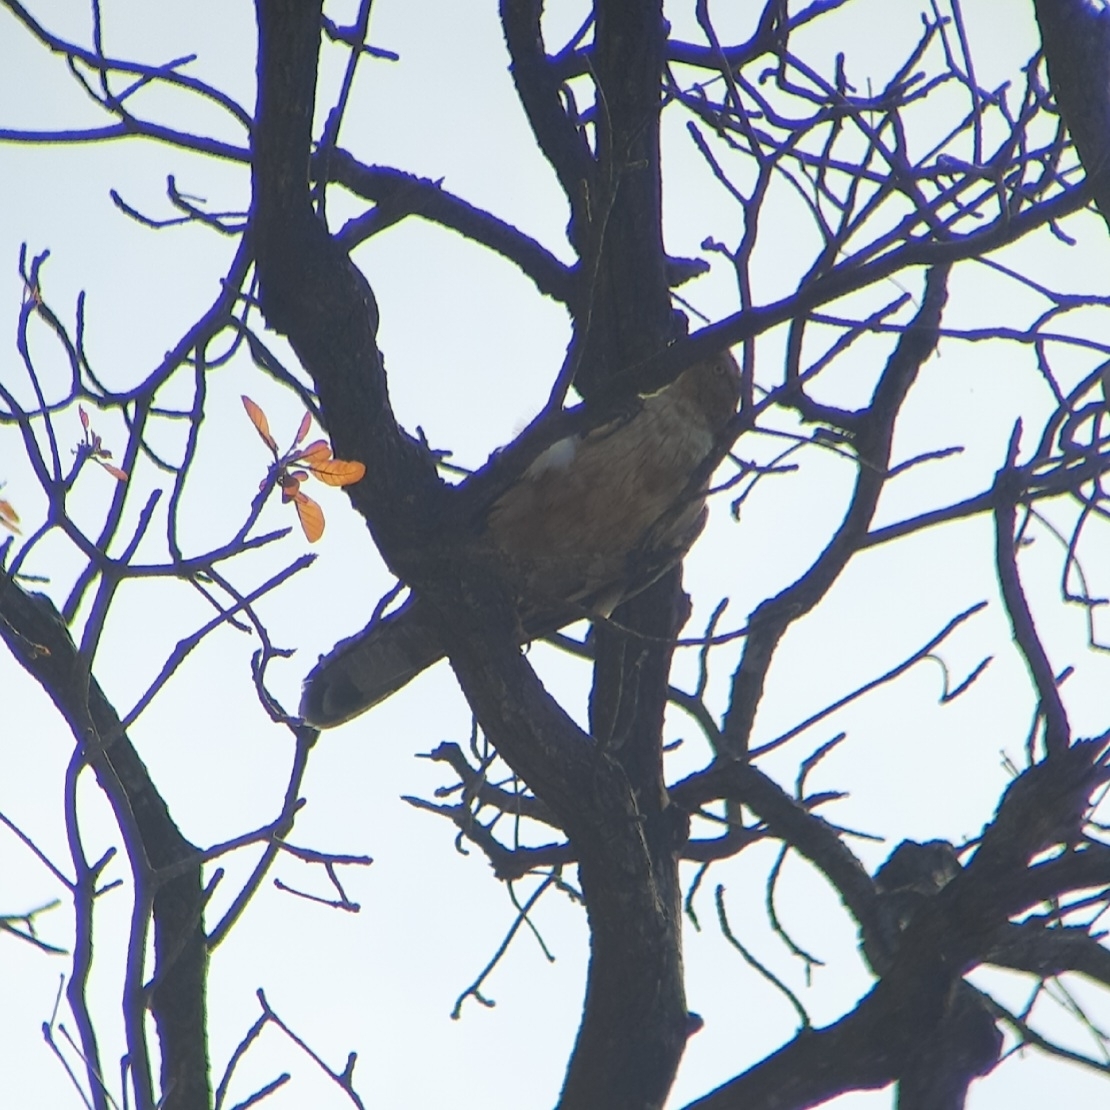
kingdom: Animalia
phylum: Chordata
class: Aves
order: Accipitriformes
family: Accipitridae
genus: Pernis
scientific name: Pernis ptilorhynchus
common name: Crested honey buzzard
